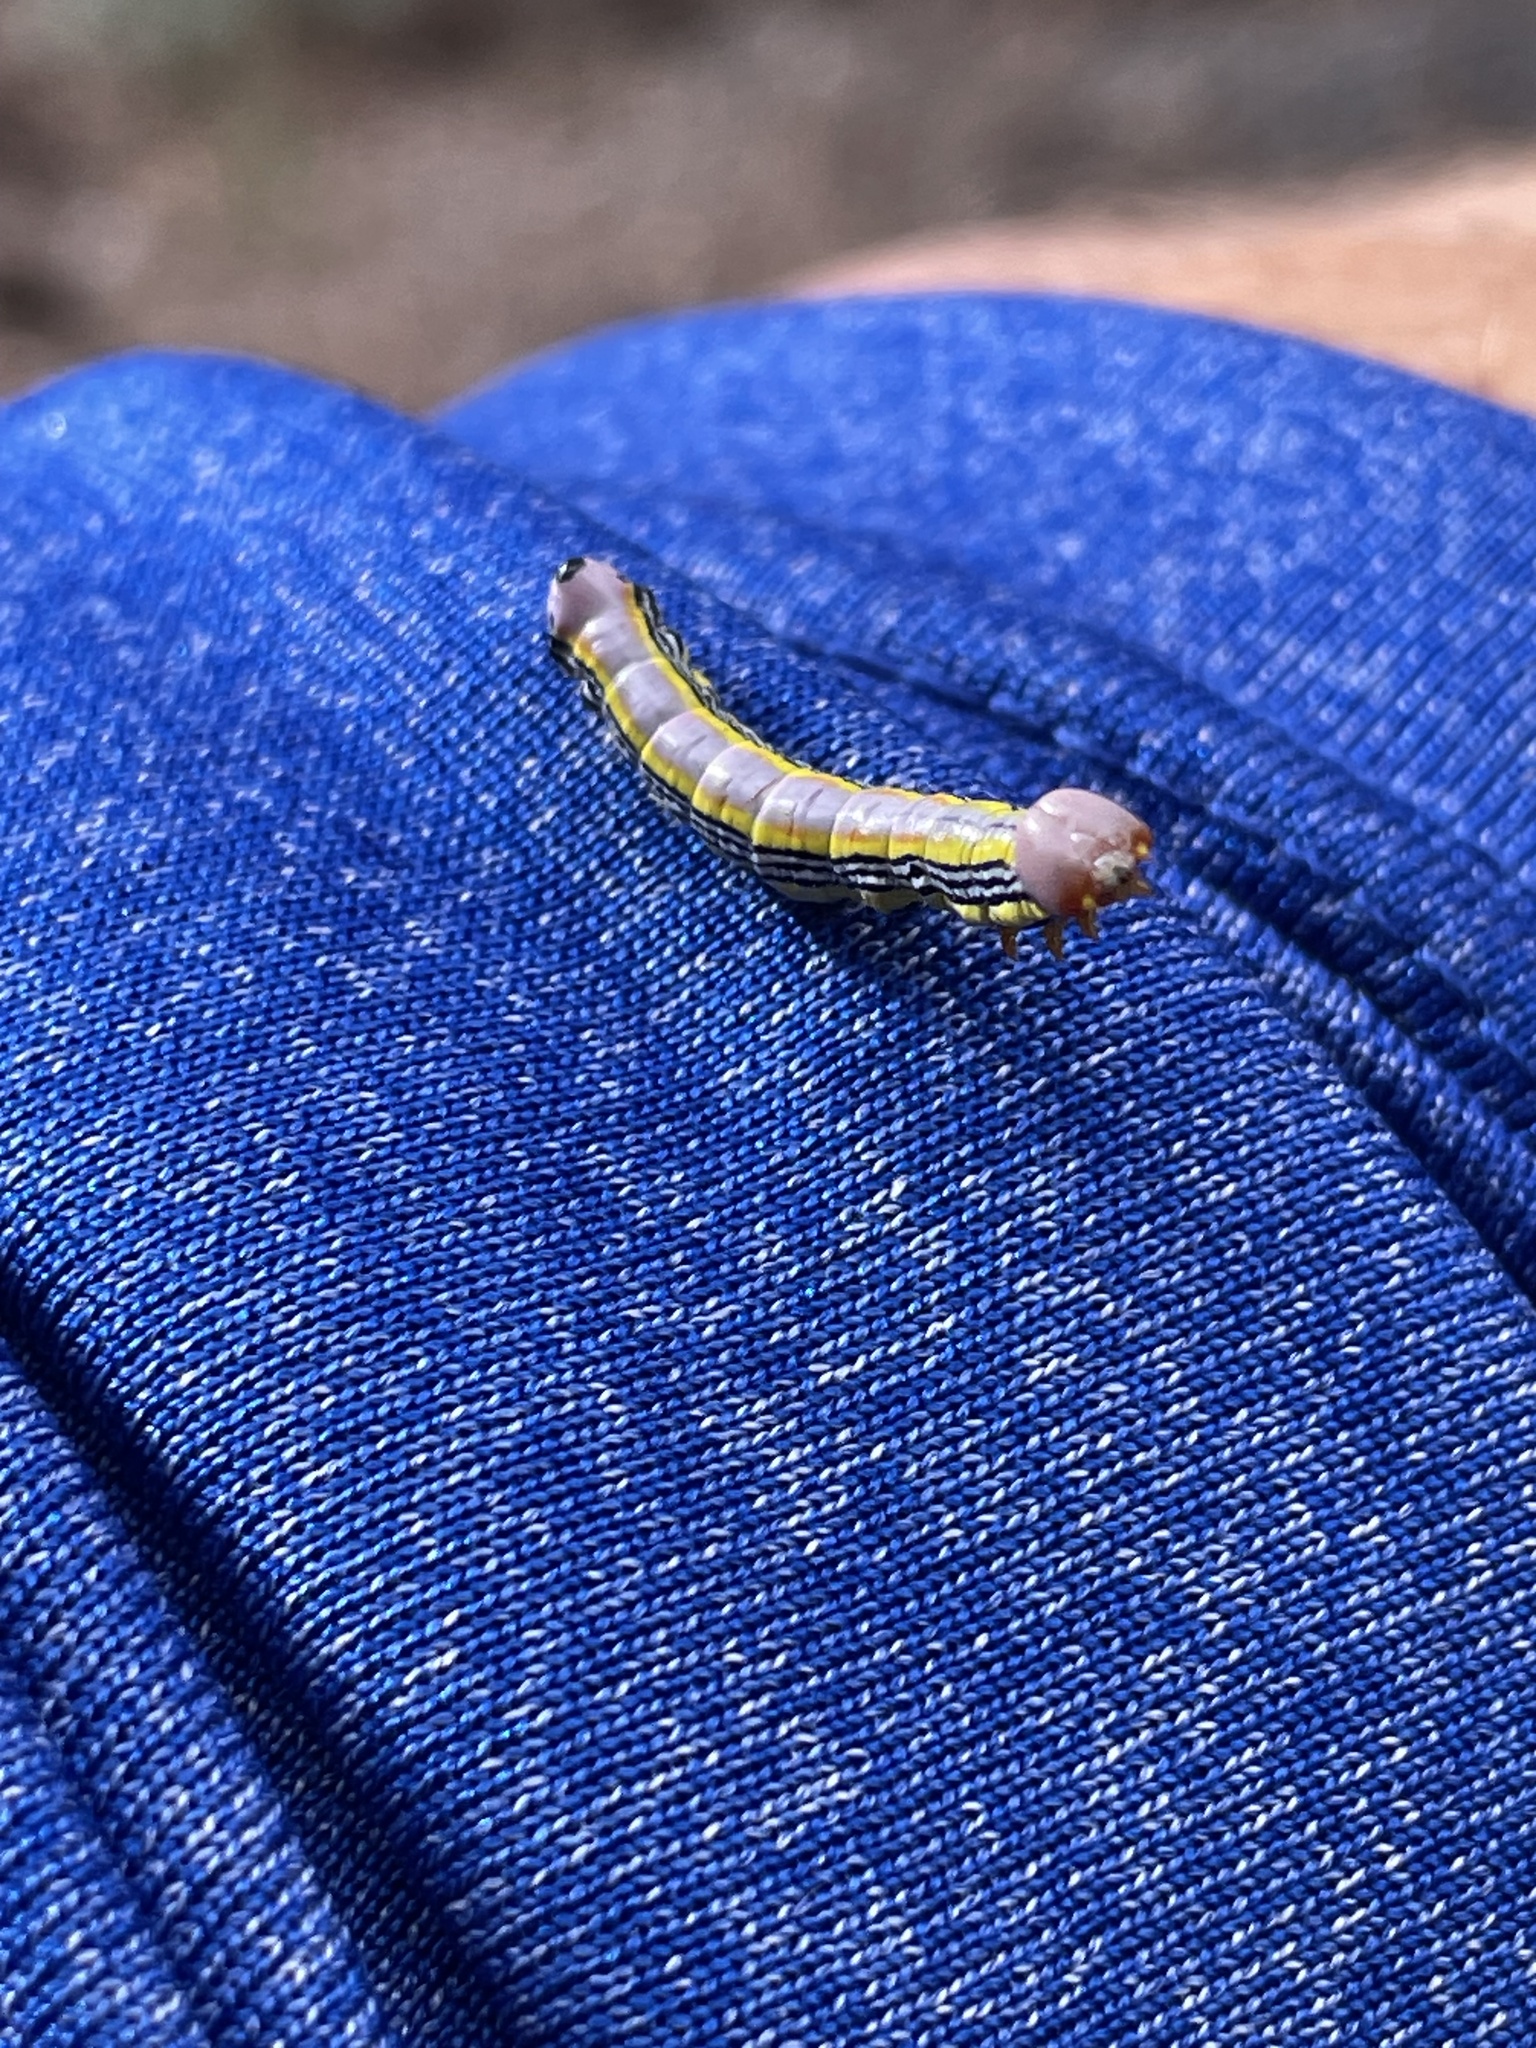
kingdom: Animalia
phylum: Arthropoda
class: Insecta
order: Lepidoptera
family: Notodontidae
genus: Dasylophia
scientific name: Dasylophia seriata
